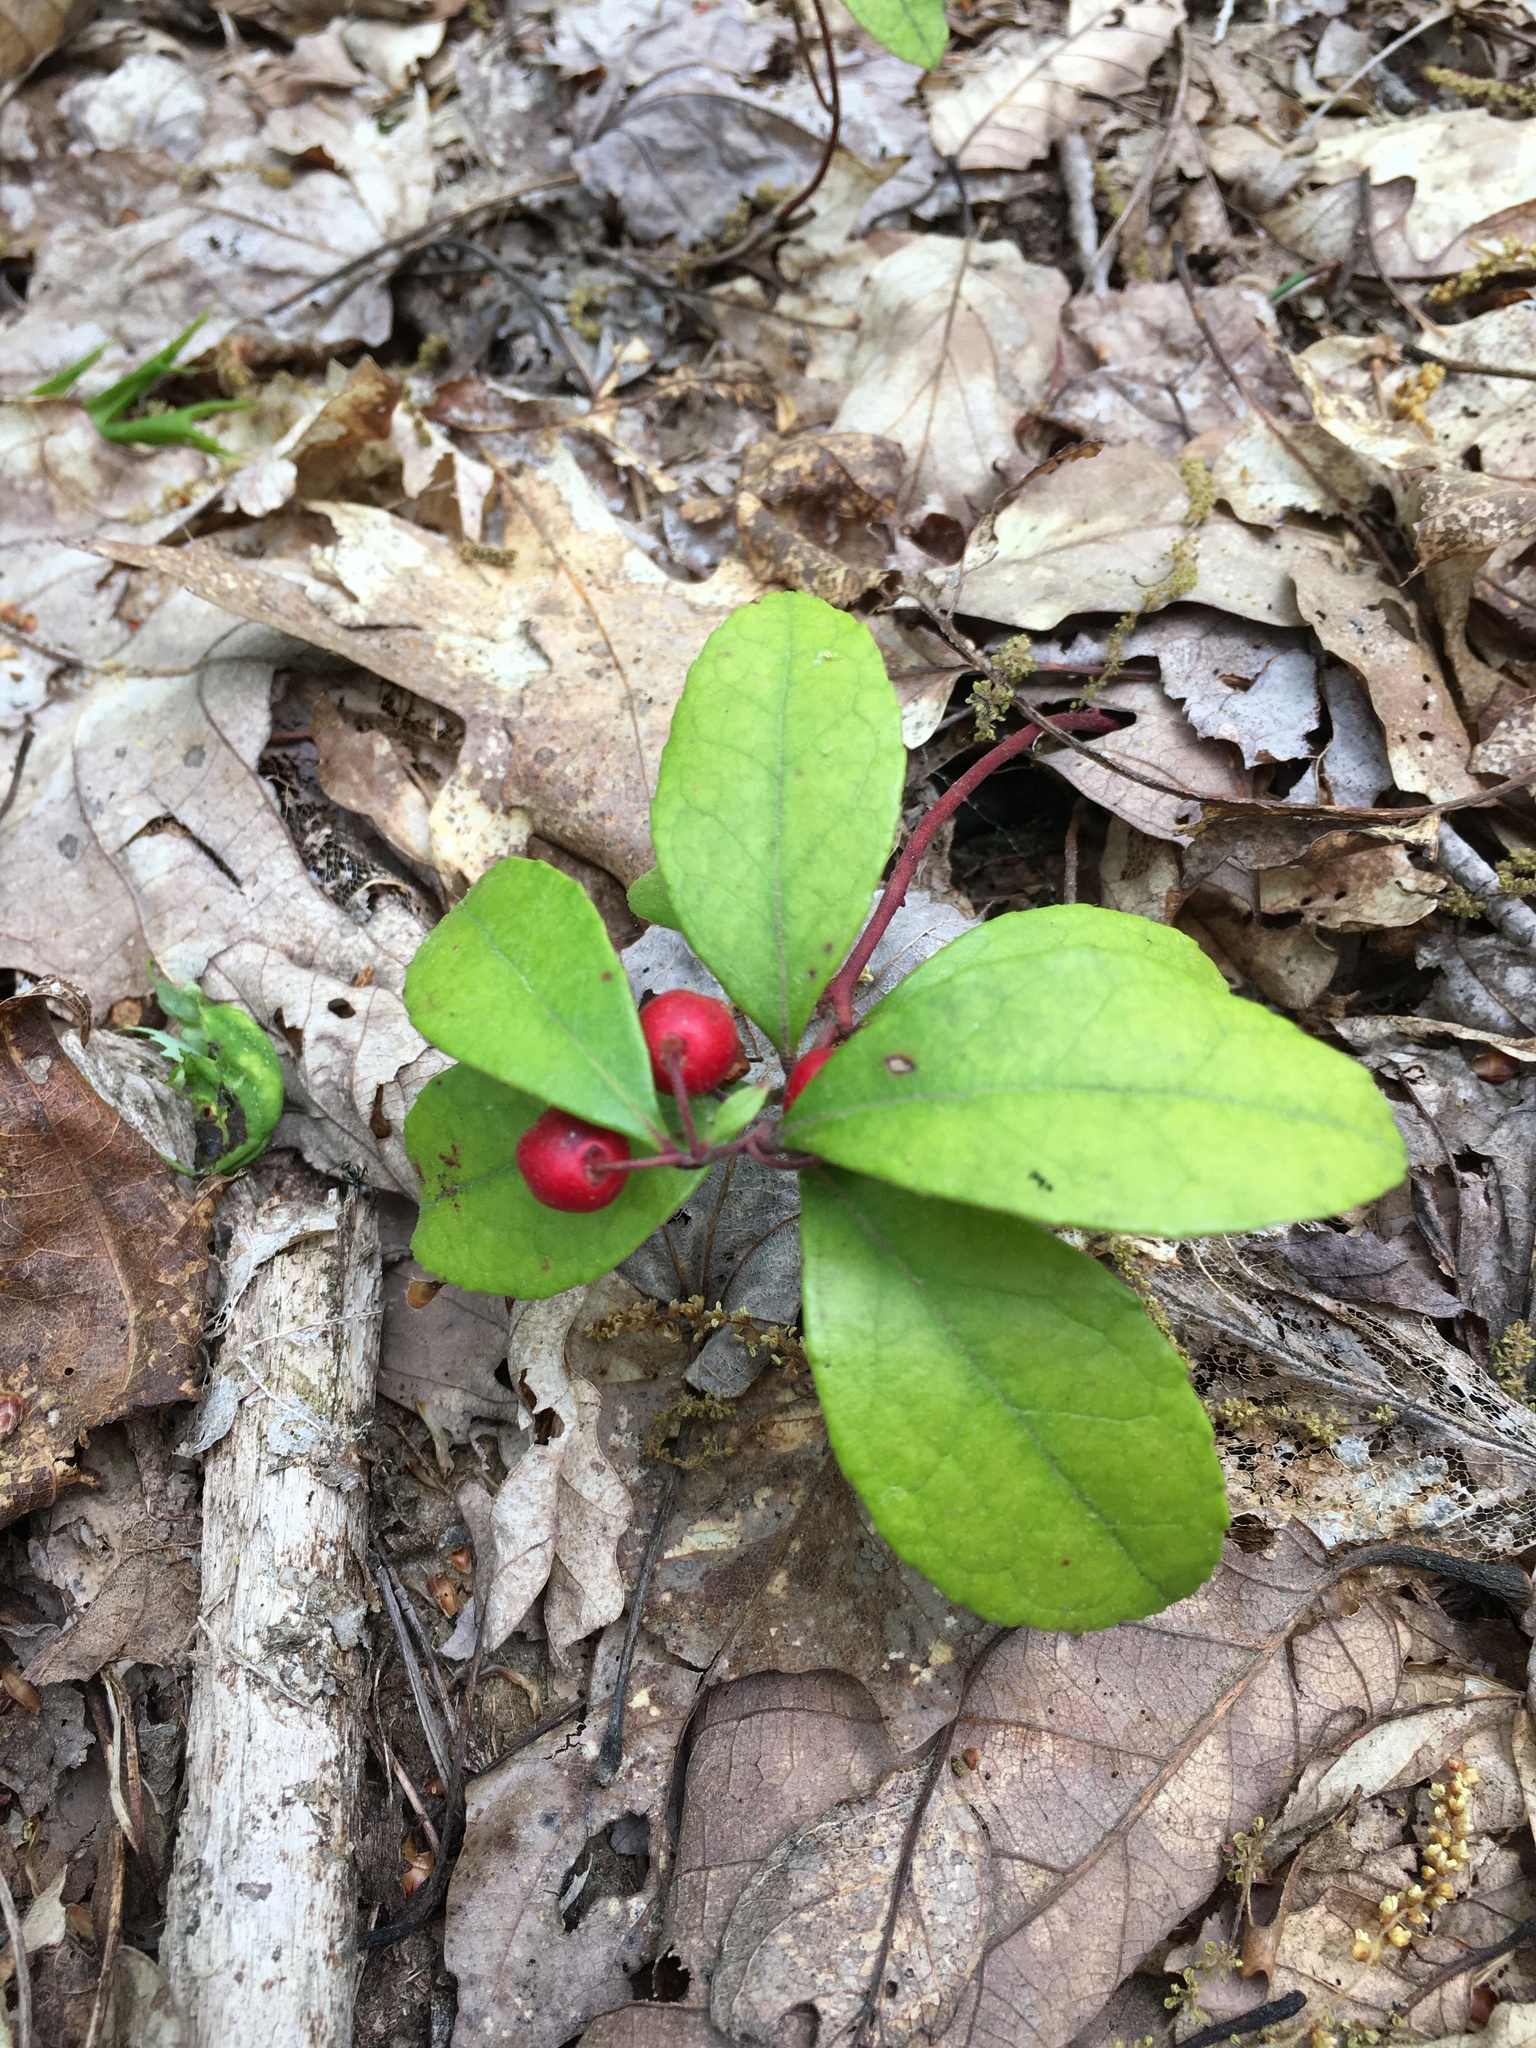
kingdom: Plantae
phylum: Tracheophyta
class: Magnoliopsida
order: Ericales
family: Ericaceae
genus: Gaultheria
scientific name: Gaultheria procumbens
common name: Checkerberry
